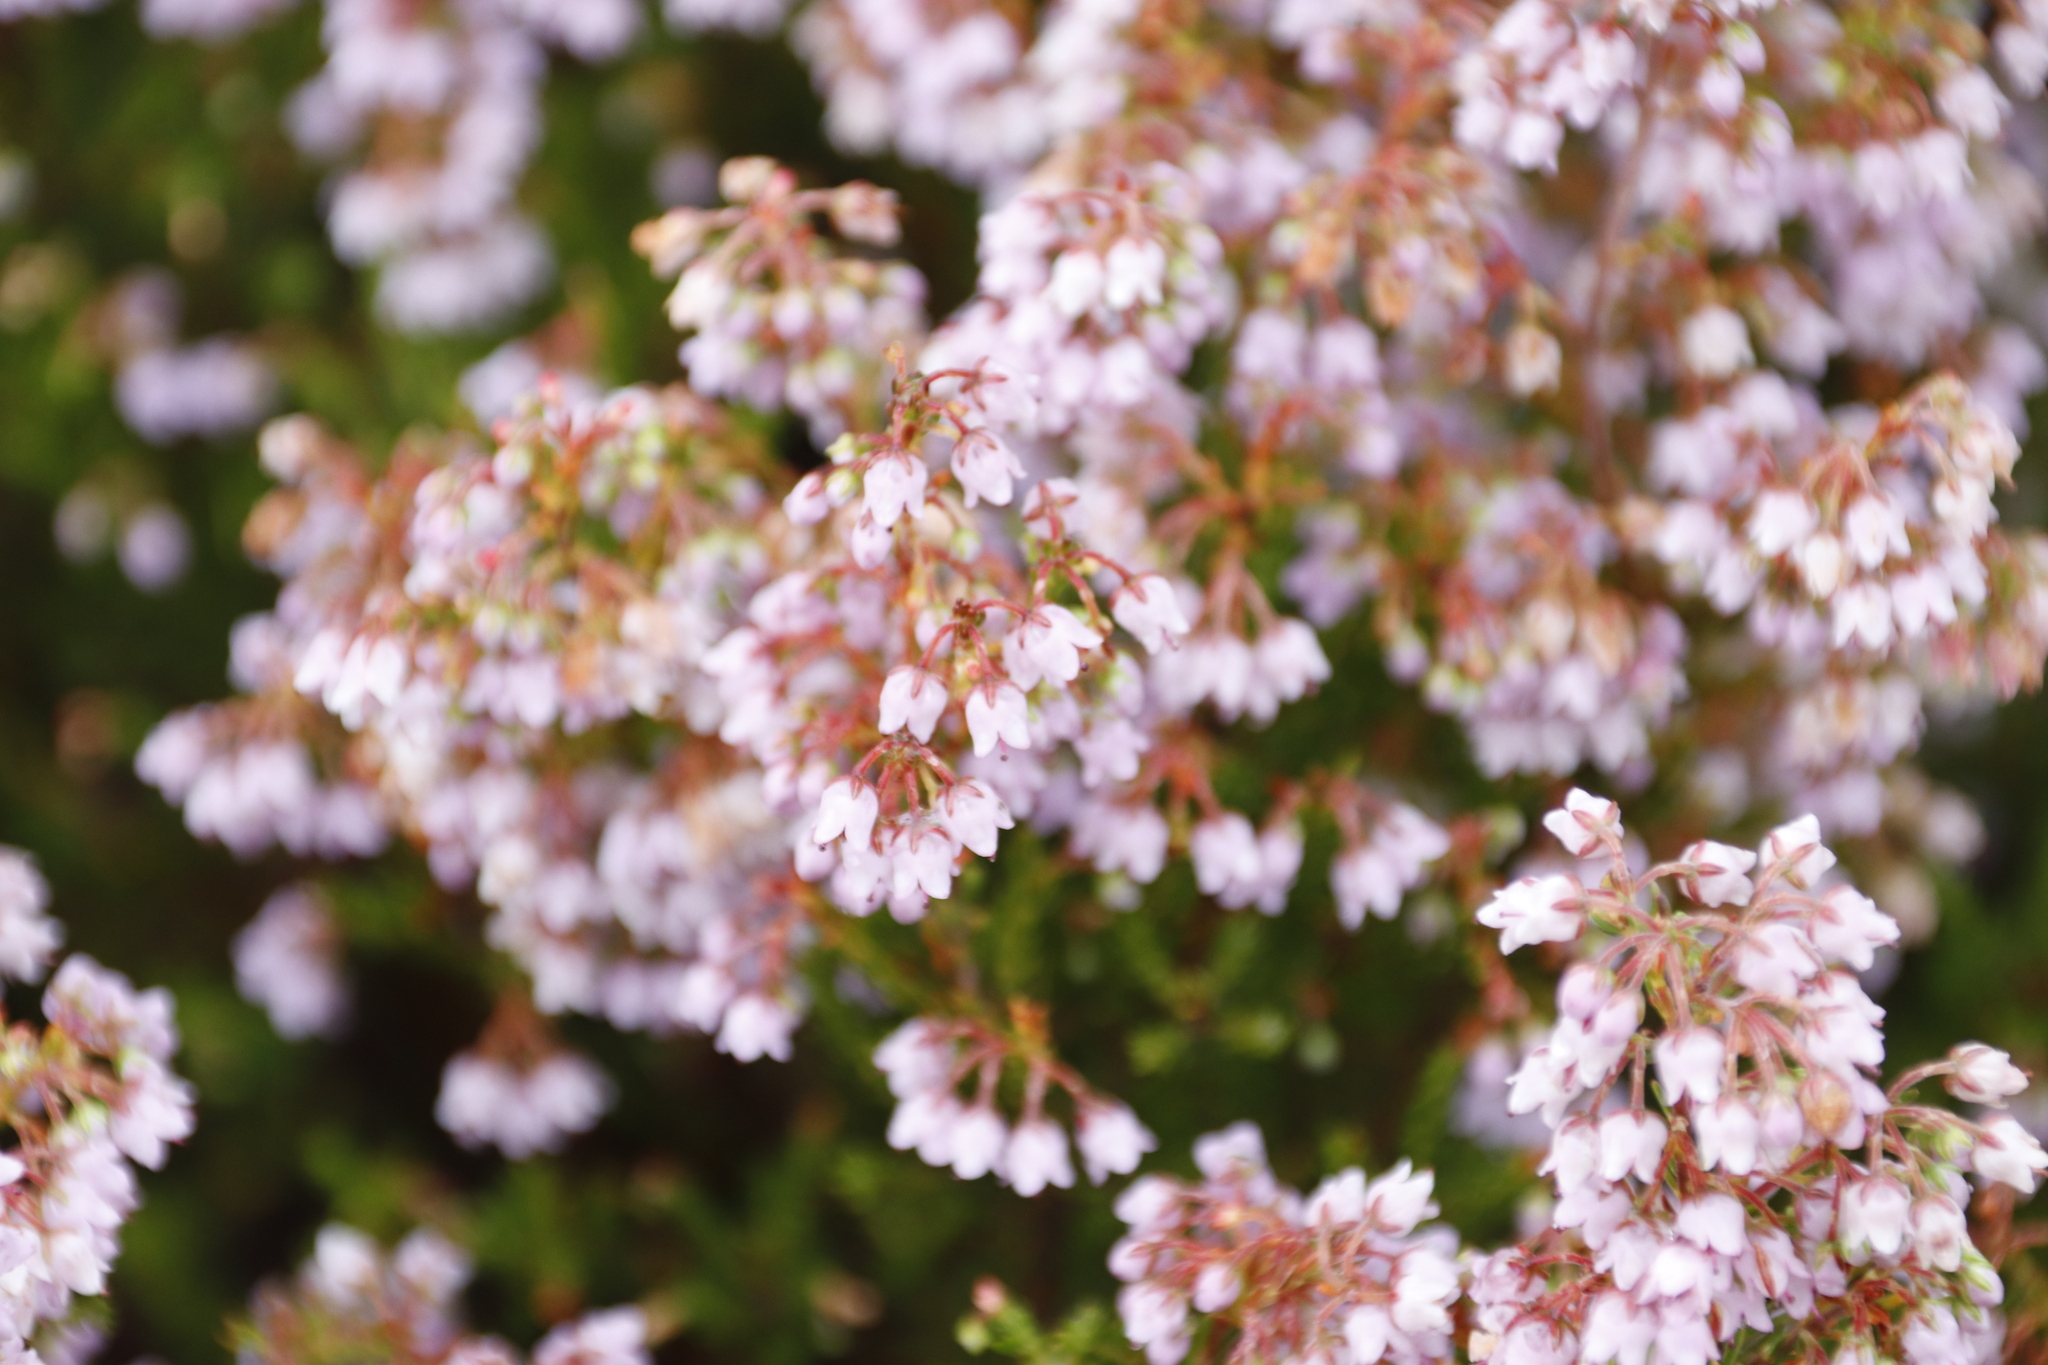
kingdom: Plantae
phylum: Tracheophyta
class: Magnoliopsida
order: Ericales
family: Ericaceae
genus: Erica
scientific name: Erica quadrangularis
